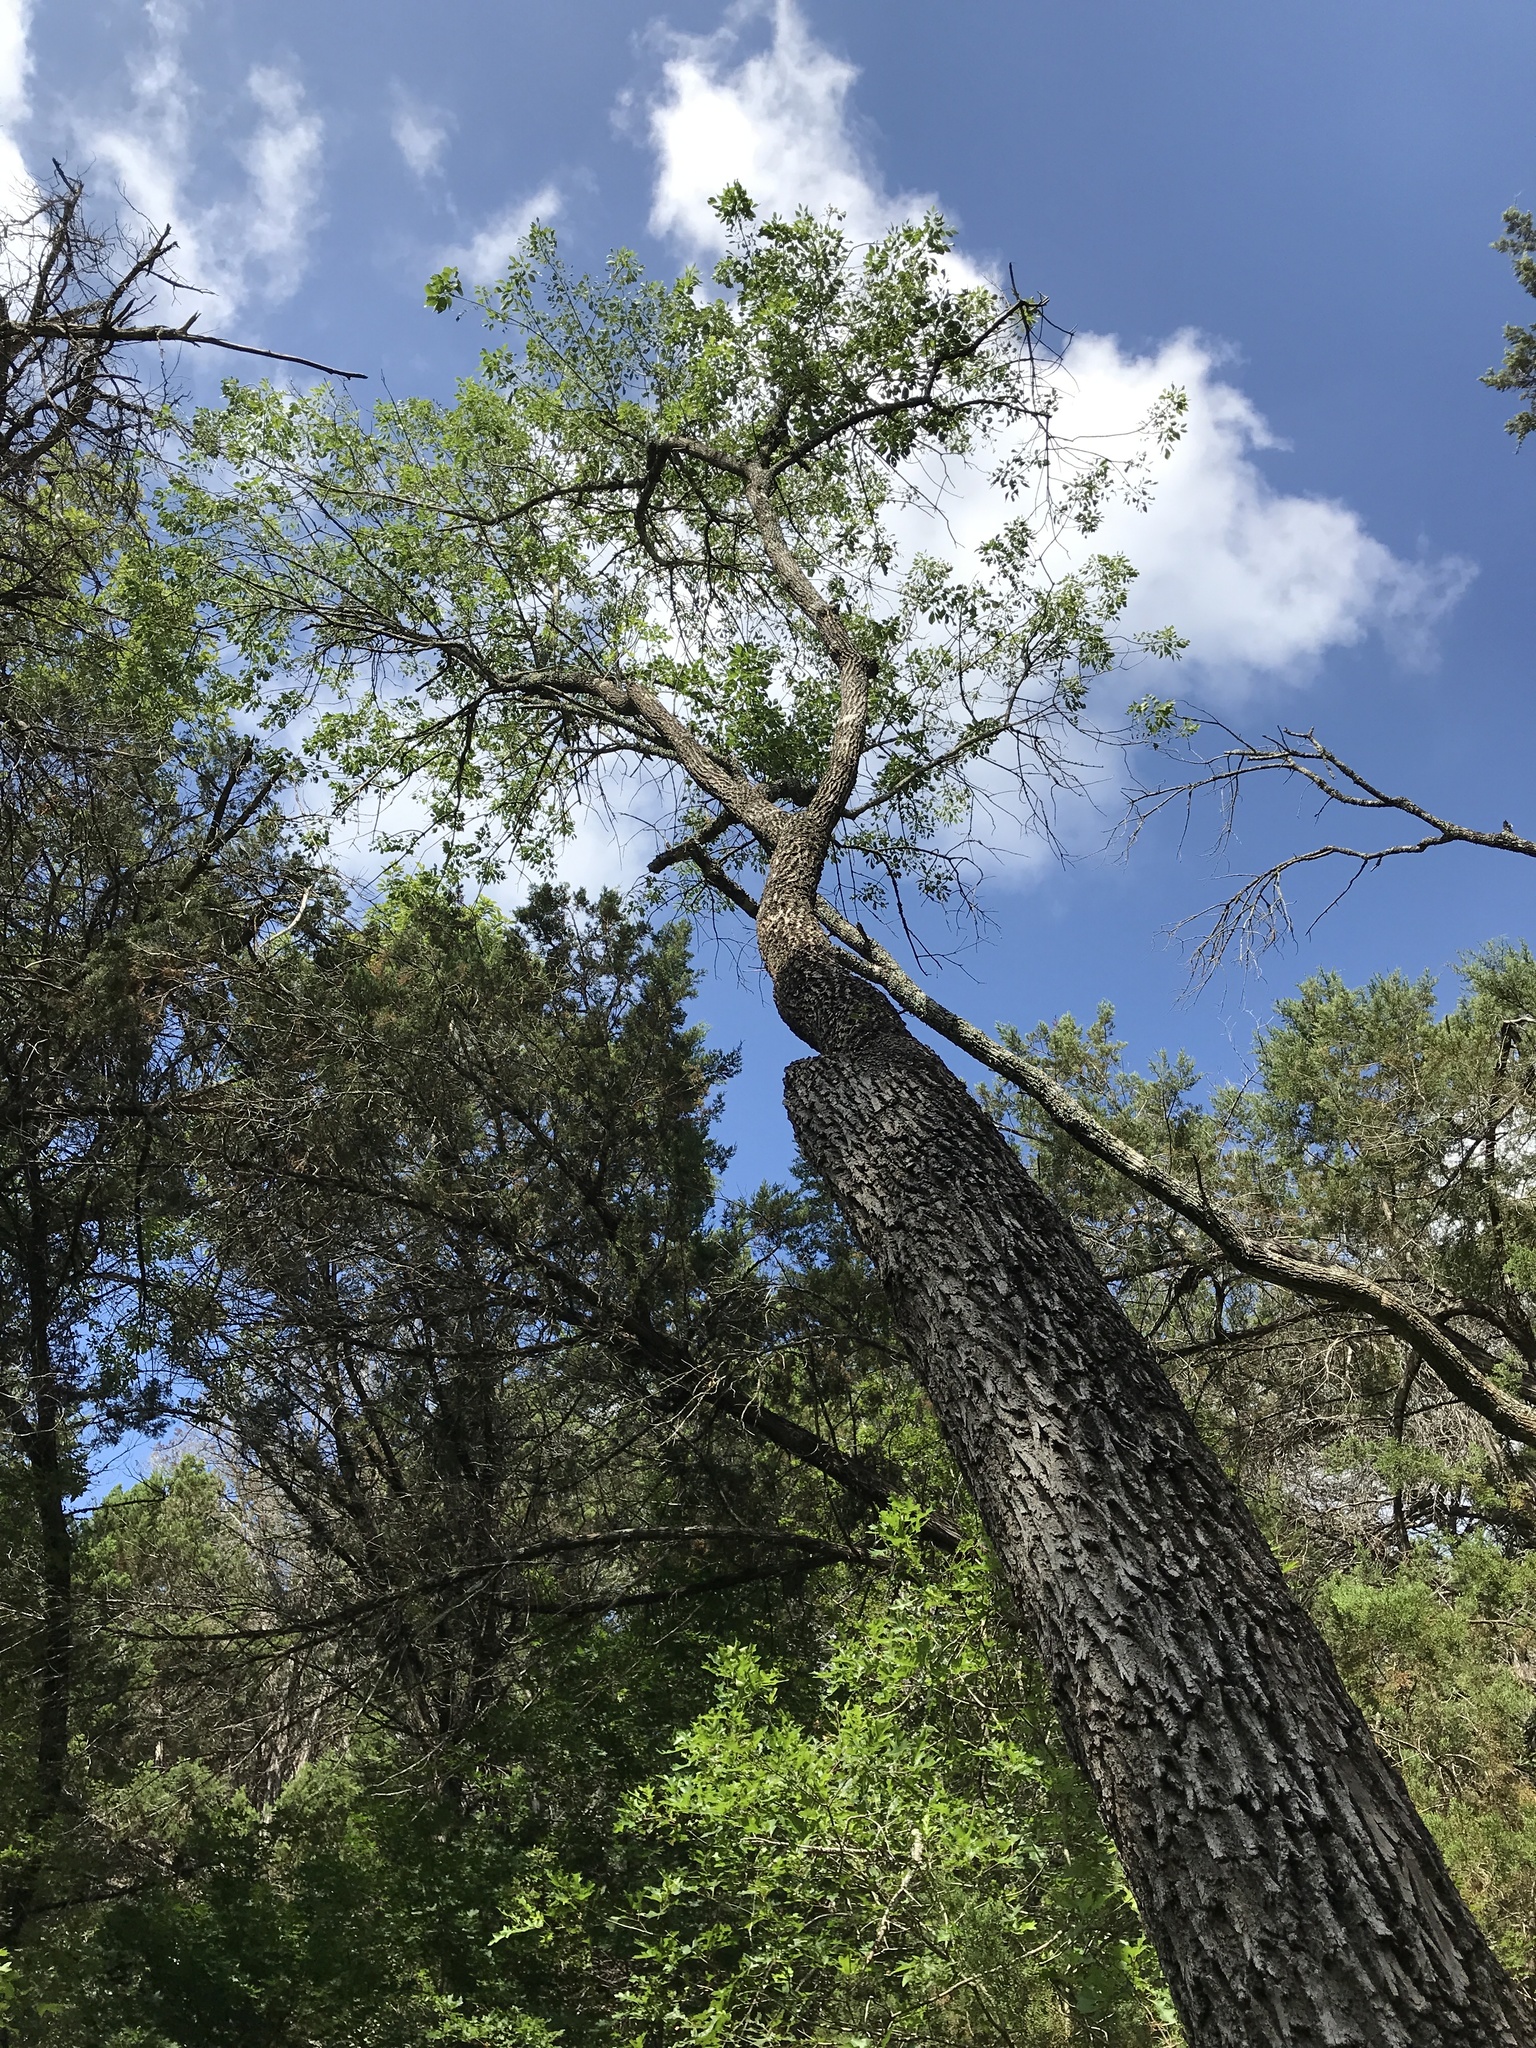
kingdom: Plantae
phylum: Tracheophyta
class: Magnoliopsida
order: Lamiales
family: Oleaceae
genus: Fraxinus
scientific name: Fraxinus albicans
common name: Texas ash
